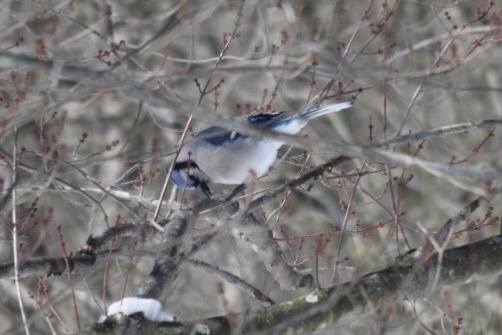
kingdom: Animalia
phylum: Chordata
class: Aves
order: Passeriformes
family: Corvidae
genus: Cyanocitta
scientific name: Cyanocitta cristata
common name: Blue jay
